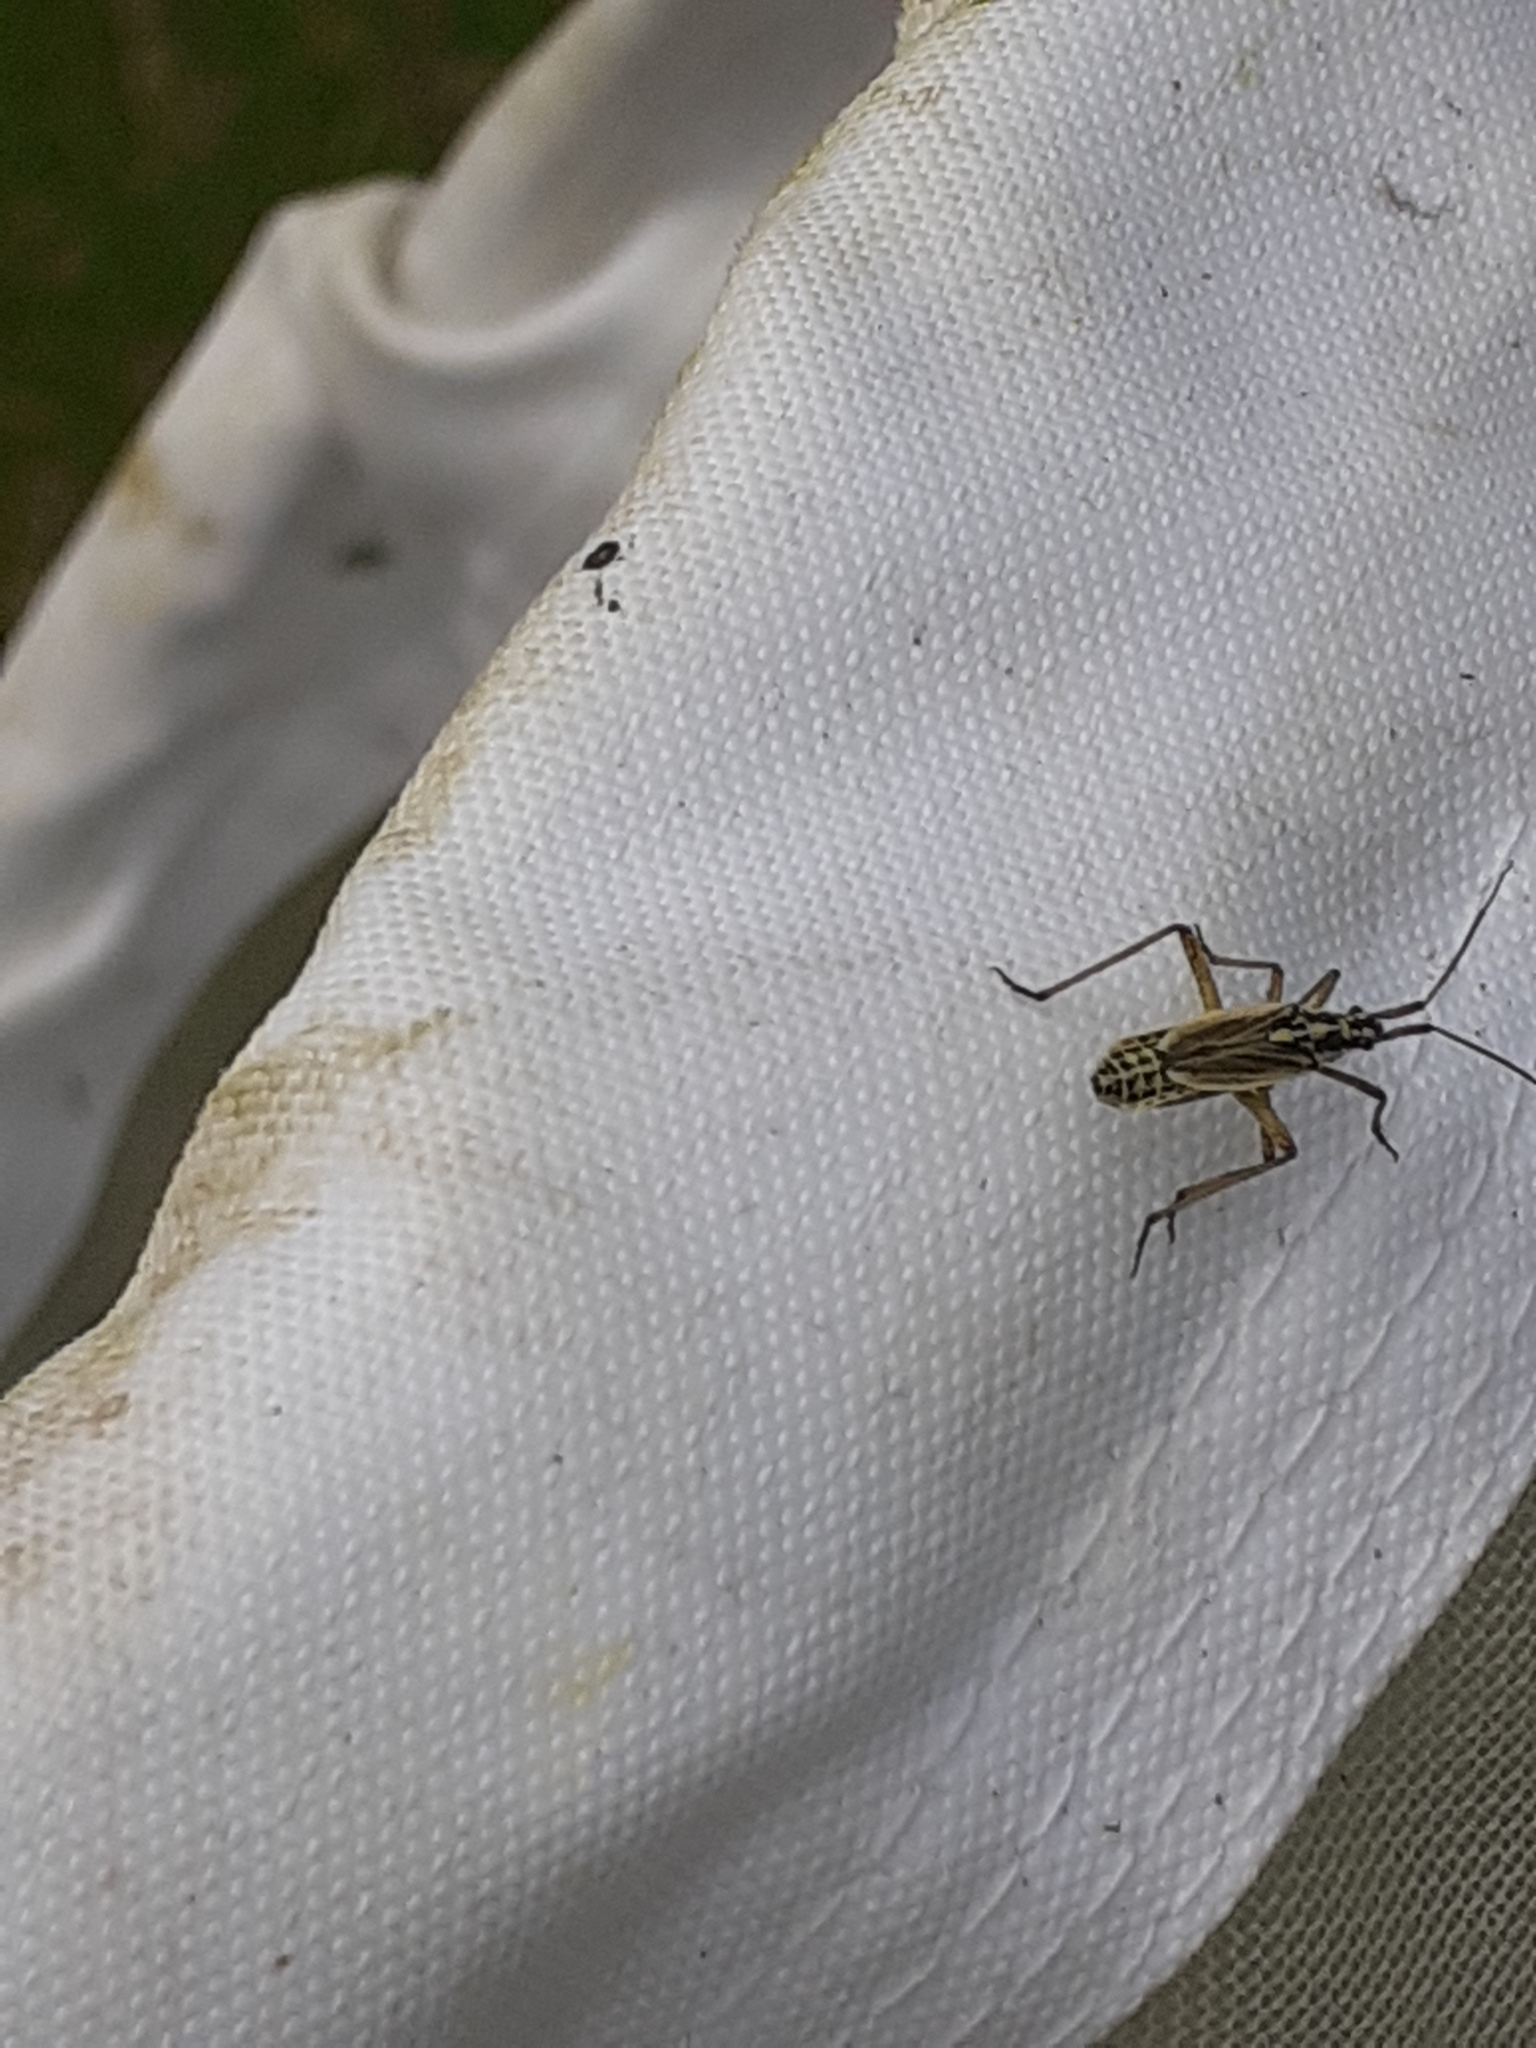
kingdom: Animalia
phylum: Arthropoda
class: Insecta
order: Hemiptera
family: Miridae
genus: Leptopterna
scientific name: Leptopterna dolabrata
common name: Meadow plant bug
